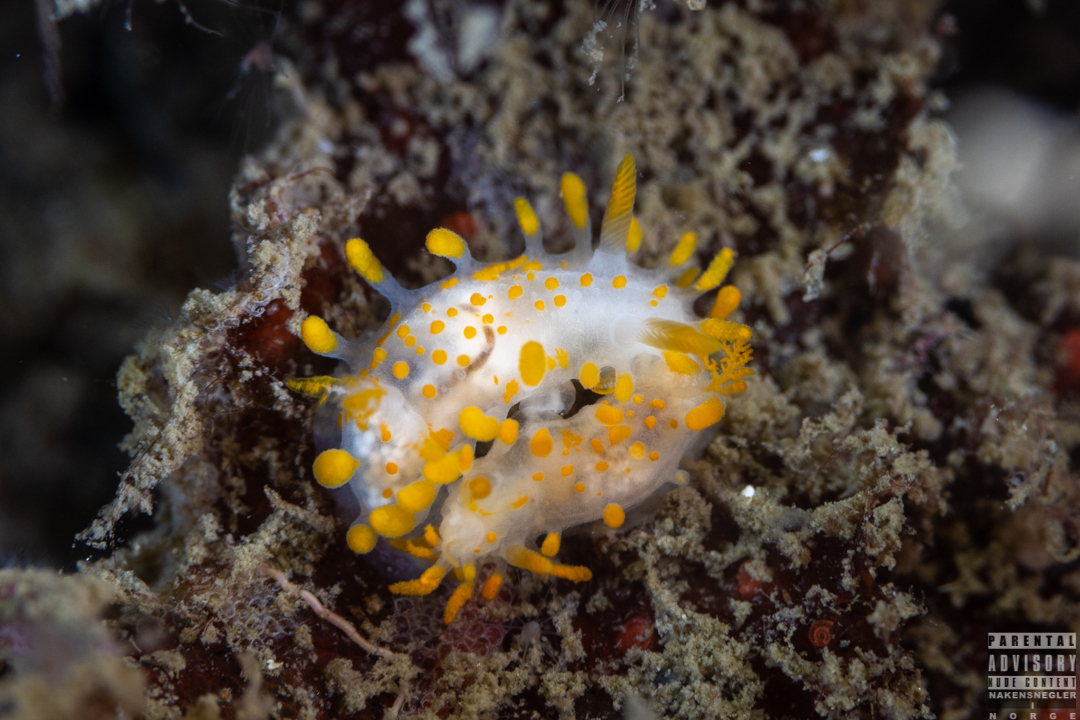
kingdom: Animalia
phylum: Mollusca
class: Gastropoda
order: Nudibranchia
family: Polyceridae
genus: Limacia
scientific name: Limacia clavigera
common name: Orange-clubbed sea slug
